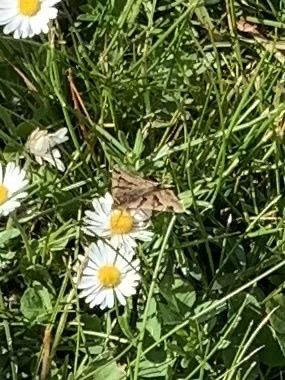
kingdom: Animalia
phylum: Arthropoda
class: Insecta
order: Lepidoptera
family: Erebidae
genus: Euclidia
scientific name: Euclidia glyphica
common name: Burnet companion
